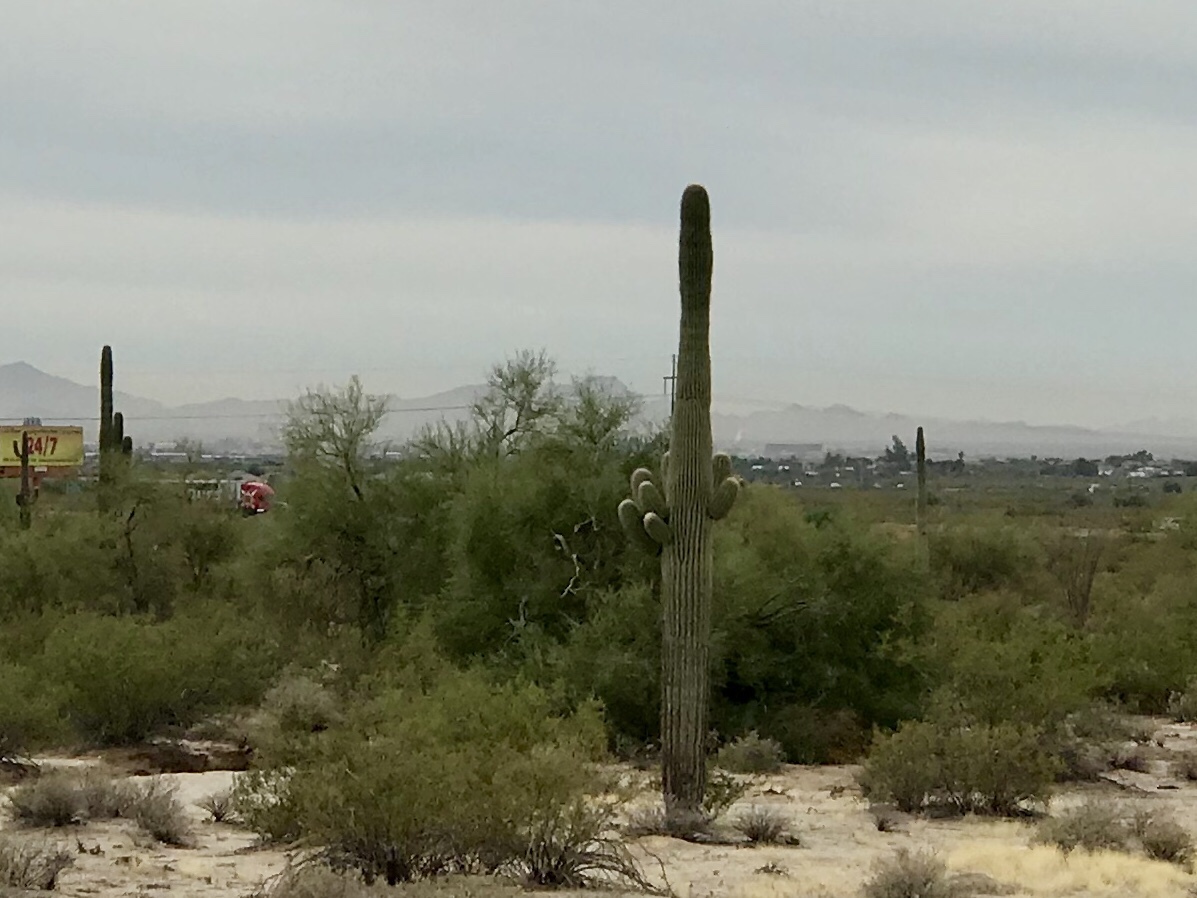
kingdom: Plantae
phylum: Tracheophyta
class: Magnoliopsida
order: Caryophyllales
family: Cactaceae
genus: Carnegiea
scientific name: Carnegiea gigantea
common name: Saguaro
